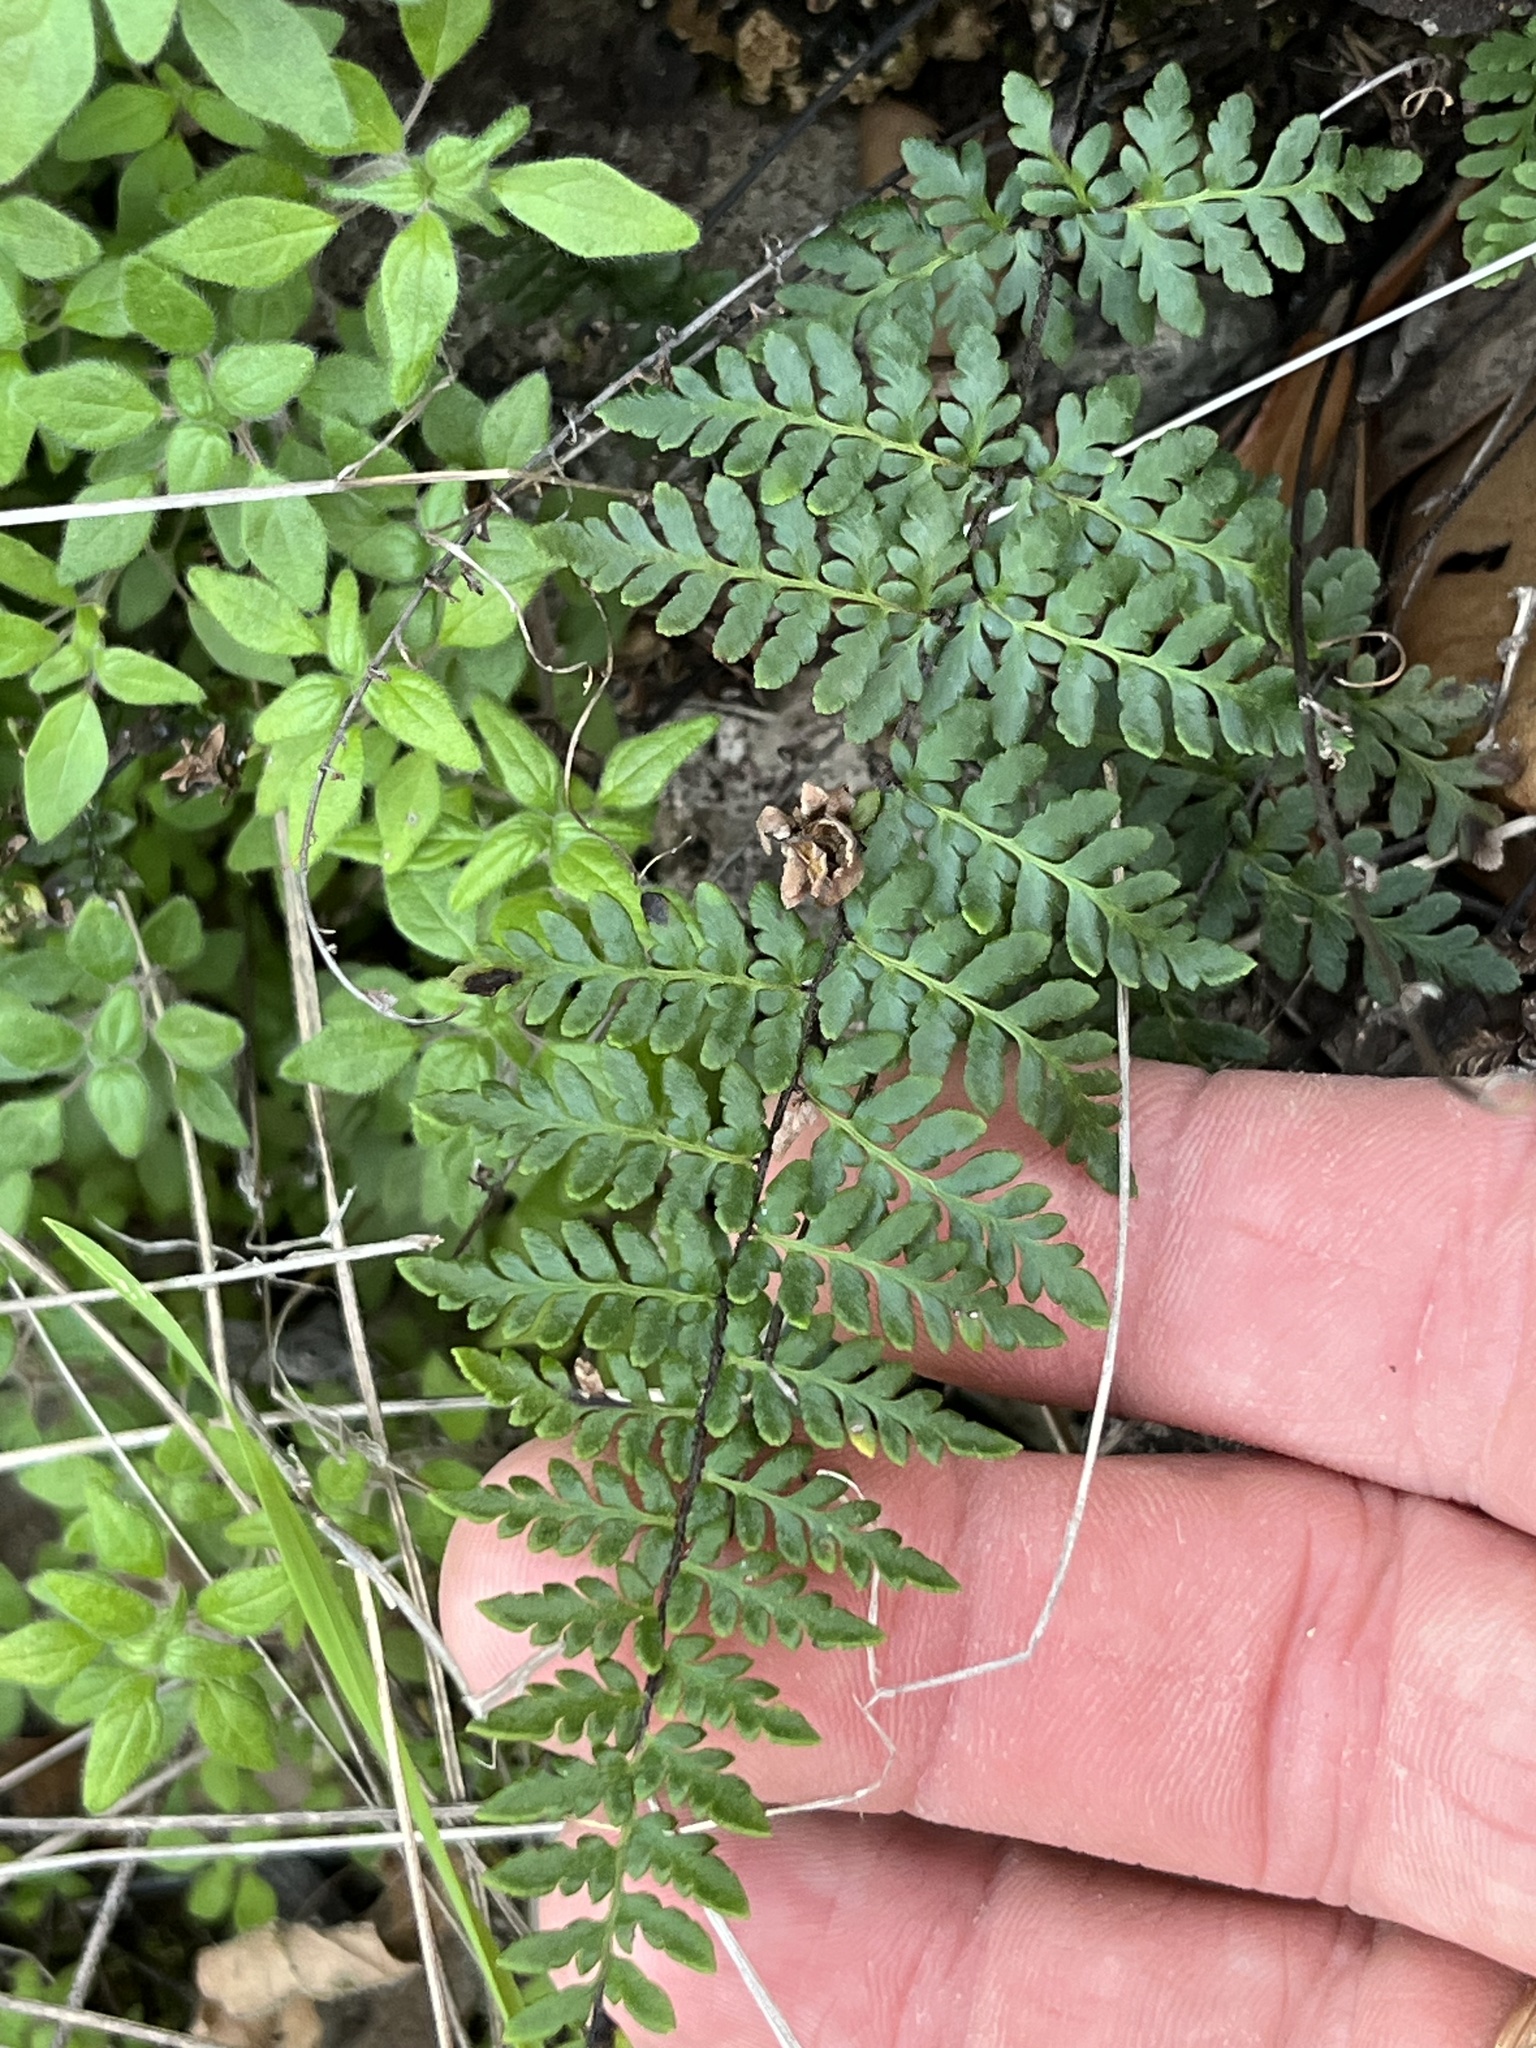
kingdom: Plantae
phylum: Tracheophyta
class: Polypodiopsida
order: Polypodiales
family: Pteridaceae
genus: Myriopteris
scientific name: Myriopteris alabamensis
